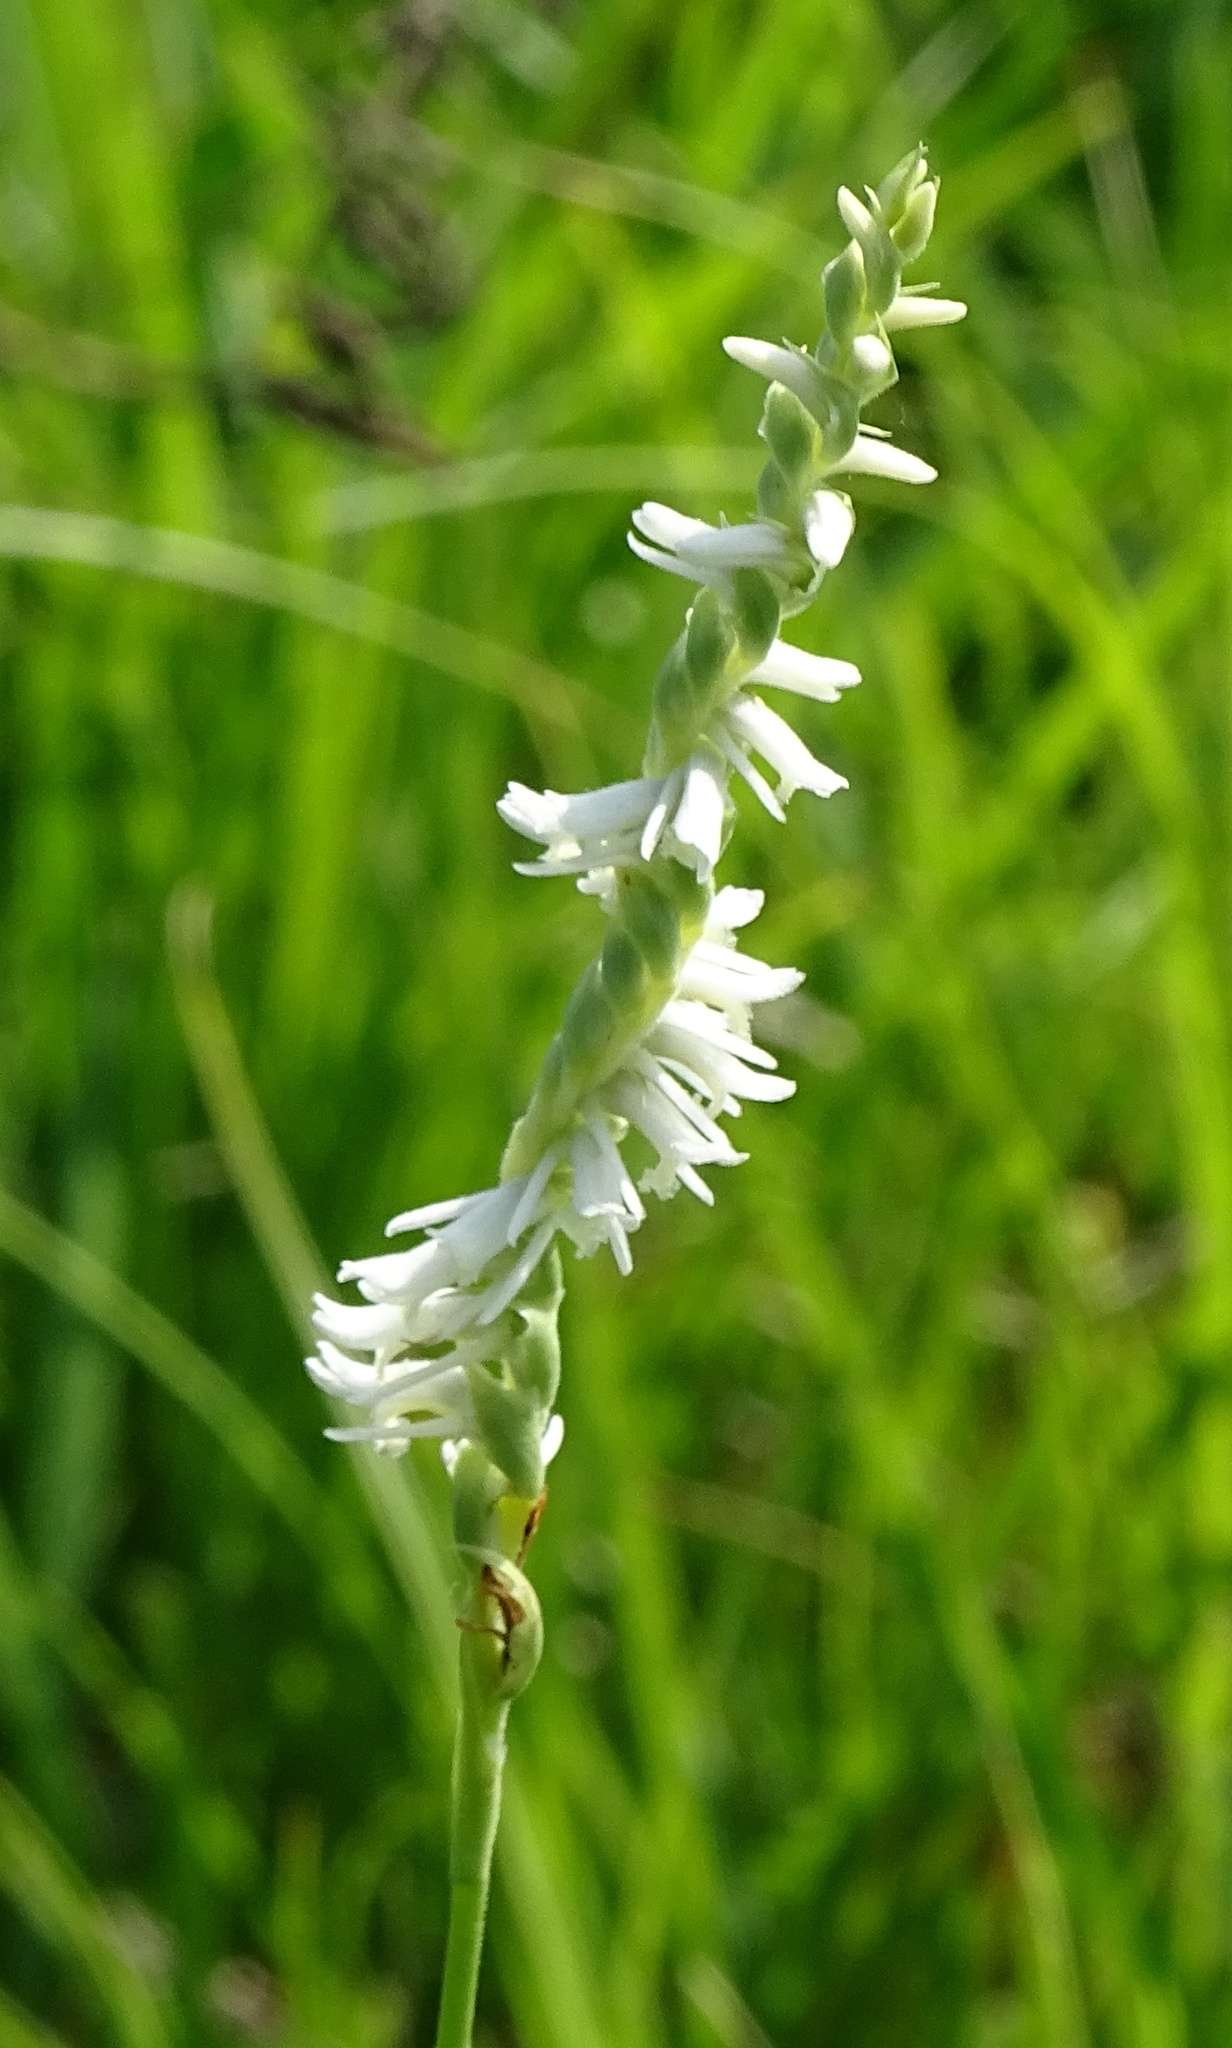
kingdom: Plantae
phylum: Tracheophyta
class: Liliopsida
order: Asparagales
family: Orchidaceae
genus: Spiranthes
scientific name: Spiranthes vernalis
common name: Spring ladies'-tresses
